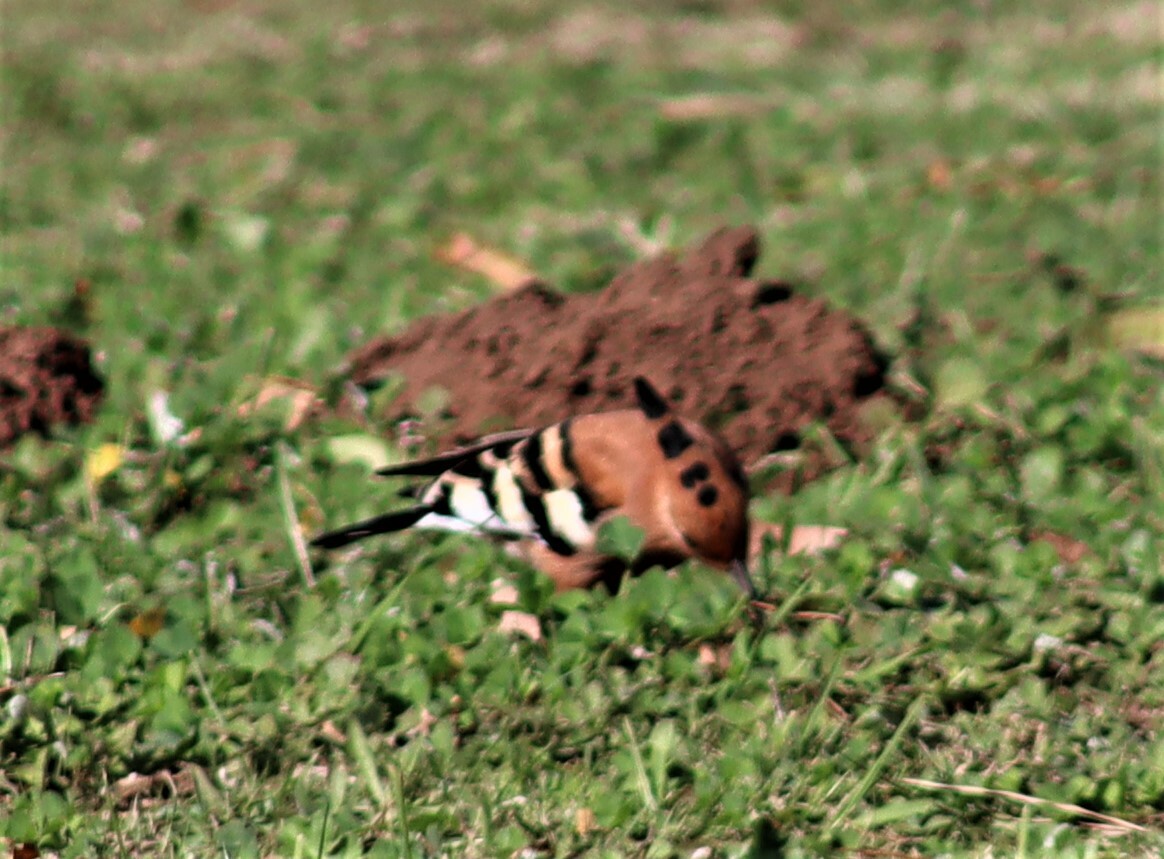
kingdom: Animalia
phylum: Chordata
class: Aves
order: Bucerotiformes
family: Upupidae
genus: Upupa
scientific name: Upupa africana
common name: African hoopoe
